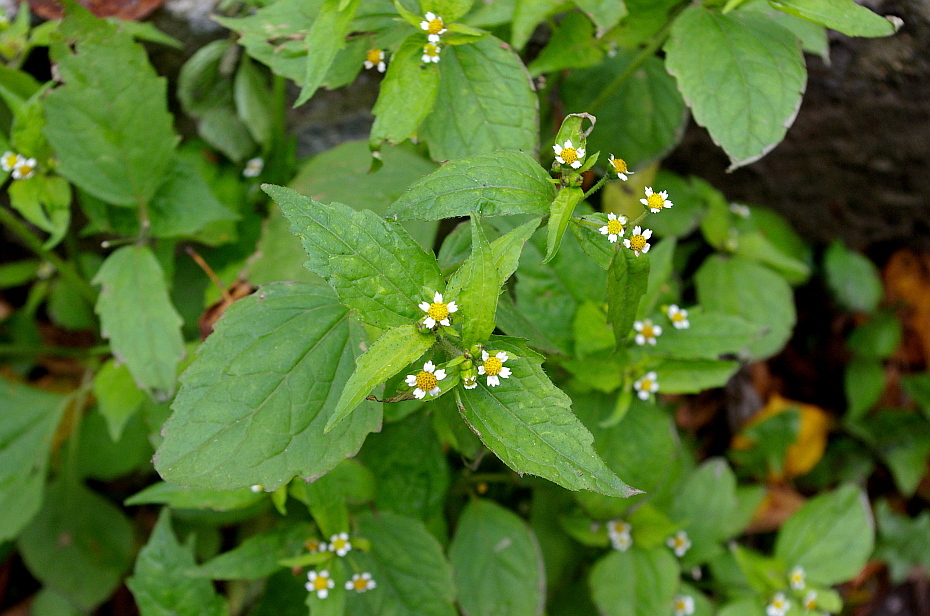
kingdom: Plantae
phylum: Tracheophyta
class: Magnoliopsida
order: Asterales
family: Asteraceae
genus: Galinsoga
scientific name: Galinsoga quadriradiata
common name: Shaggy soldier
